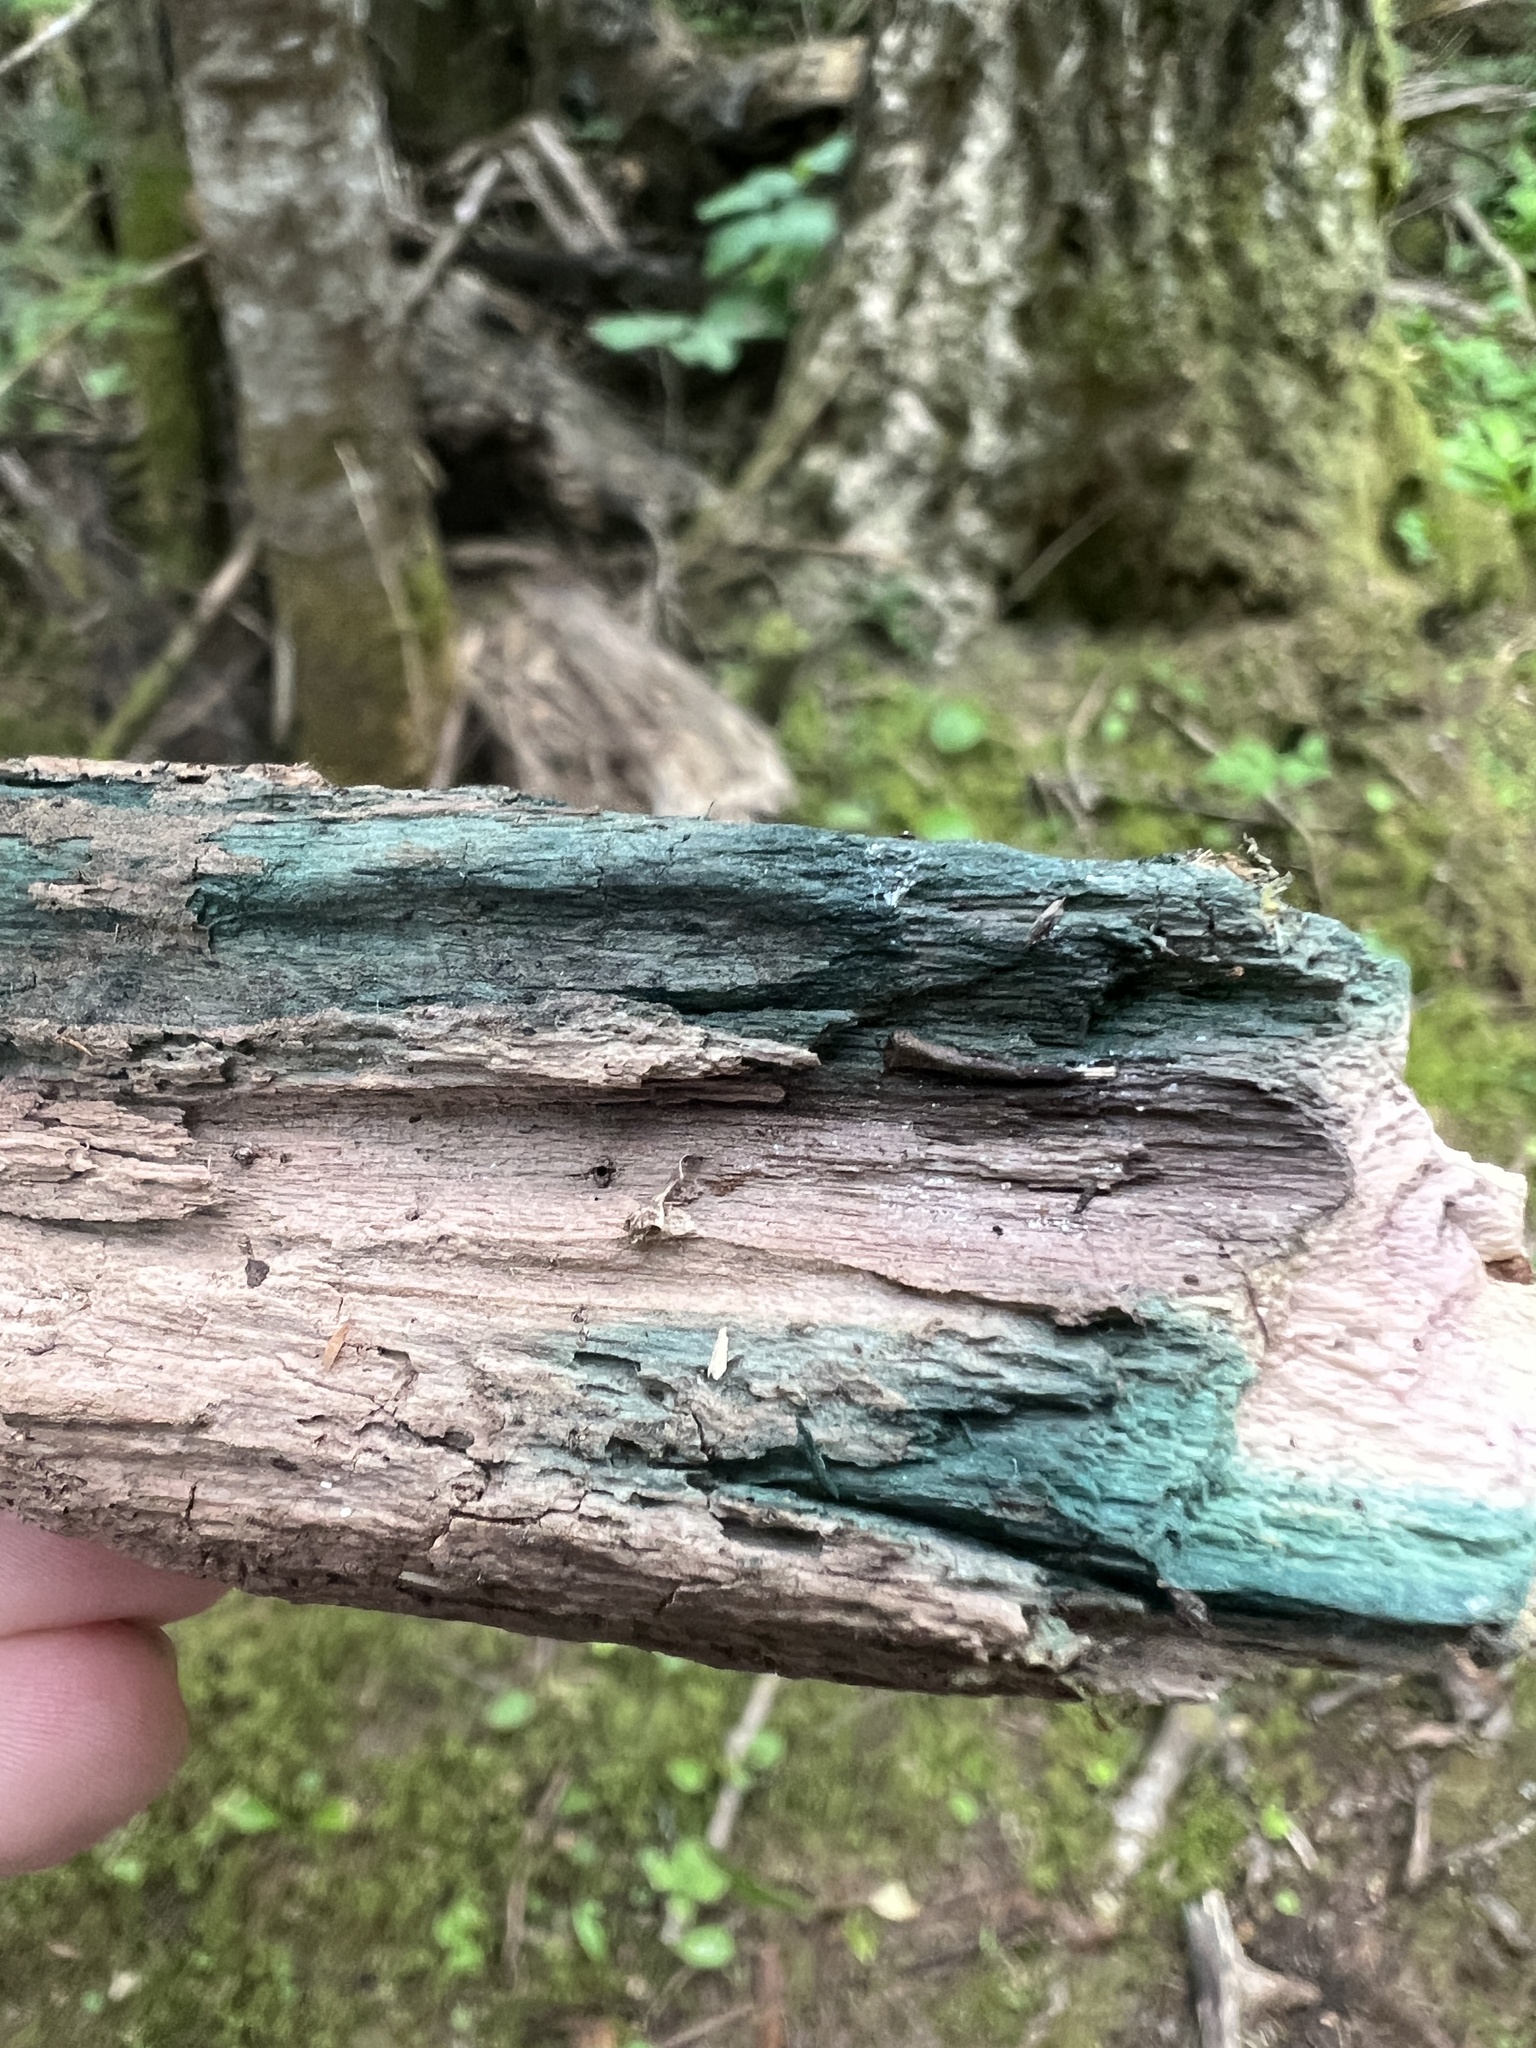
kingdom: Fungi
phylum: Ascomycota
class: Leotiomycetes
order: Helotiales
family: Chlorociboriaceae
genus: Chlorociboria
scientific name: Chlorociboria
